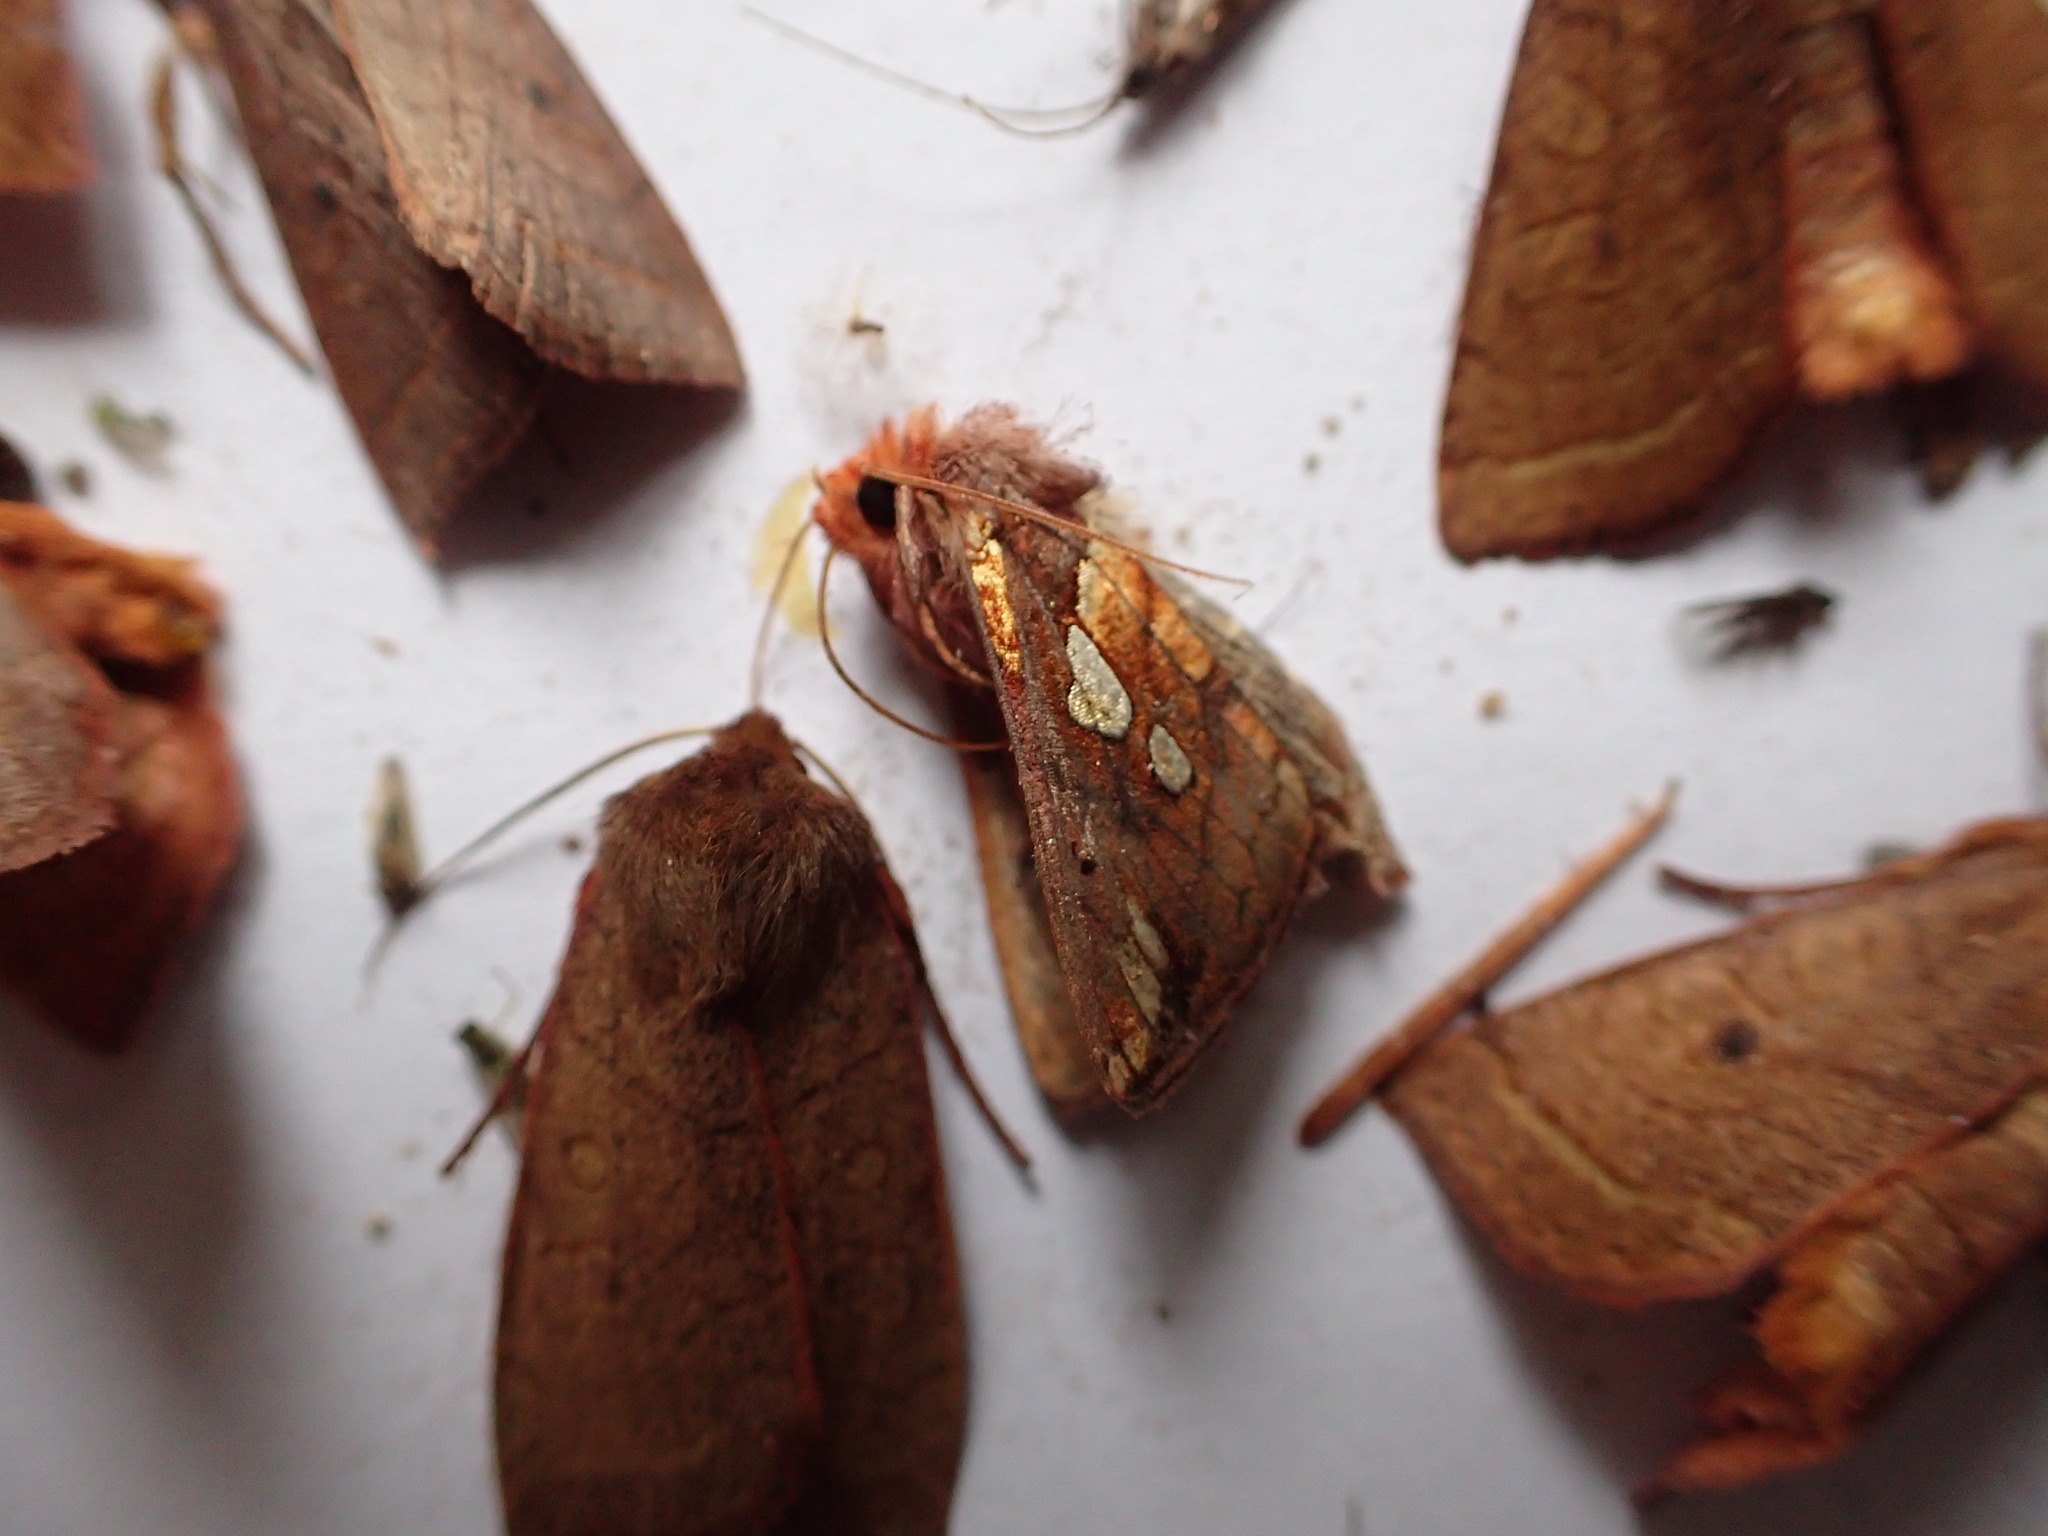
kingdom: Animalia
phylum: Arthropoda
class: Insecta
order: Lepidoptera
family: Noctuidae
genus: Plusia
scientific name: Plusia magnimacula
